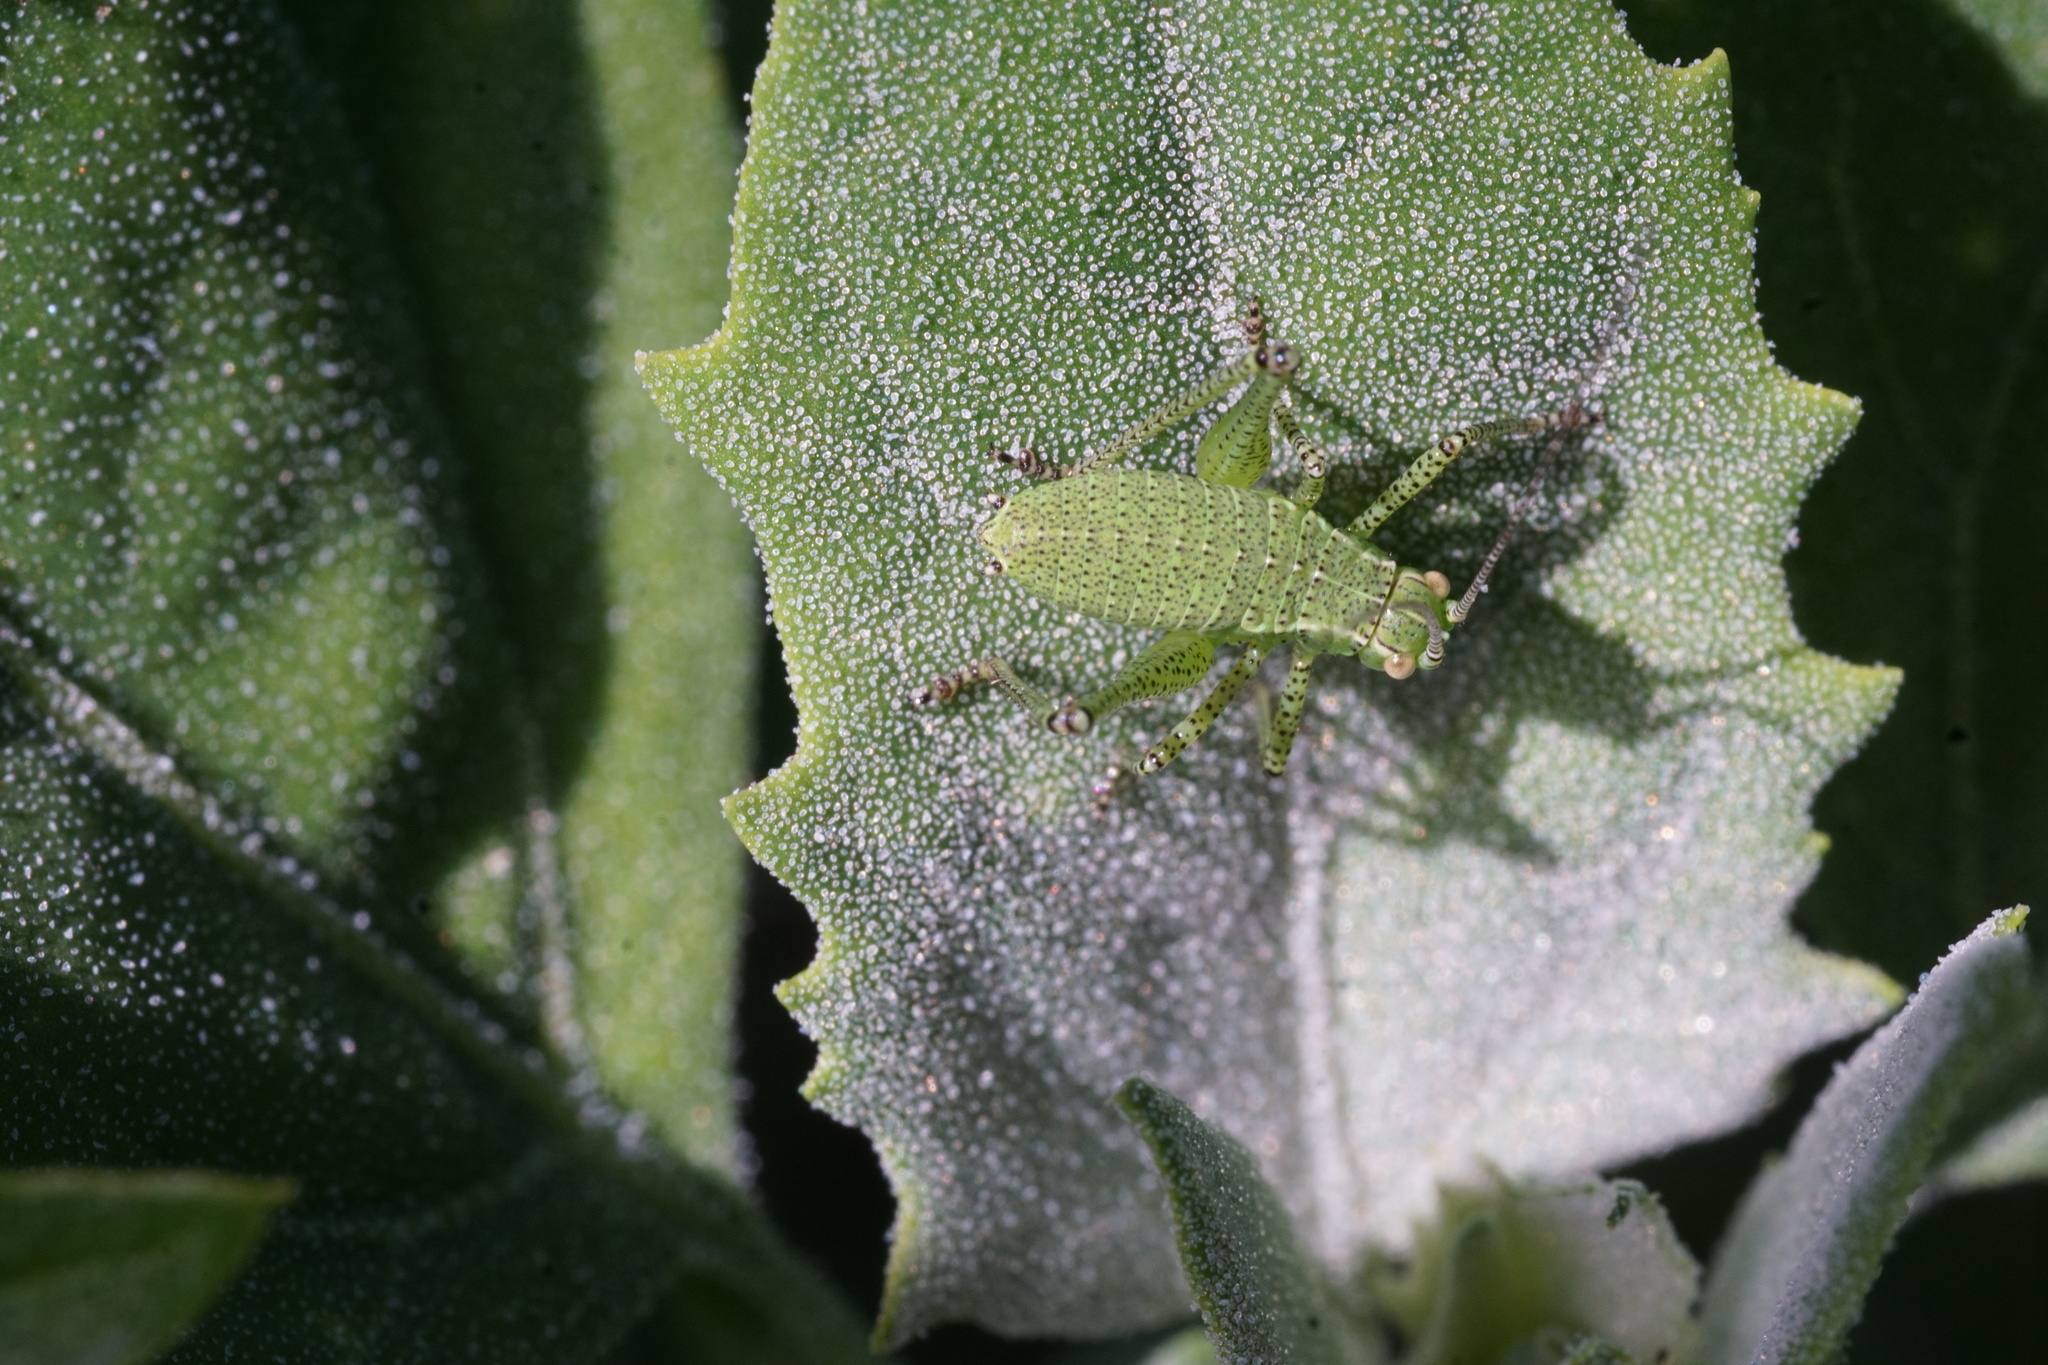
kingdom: Animalia
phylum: Arthropoda
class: Insecta
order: Orthoptera
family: Tettigoniidae
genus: Leptophyes
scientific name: Leptophyes punctatissima
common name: Speckled bush-cricket
